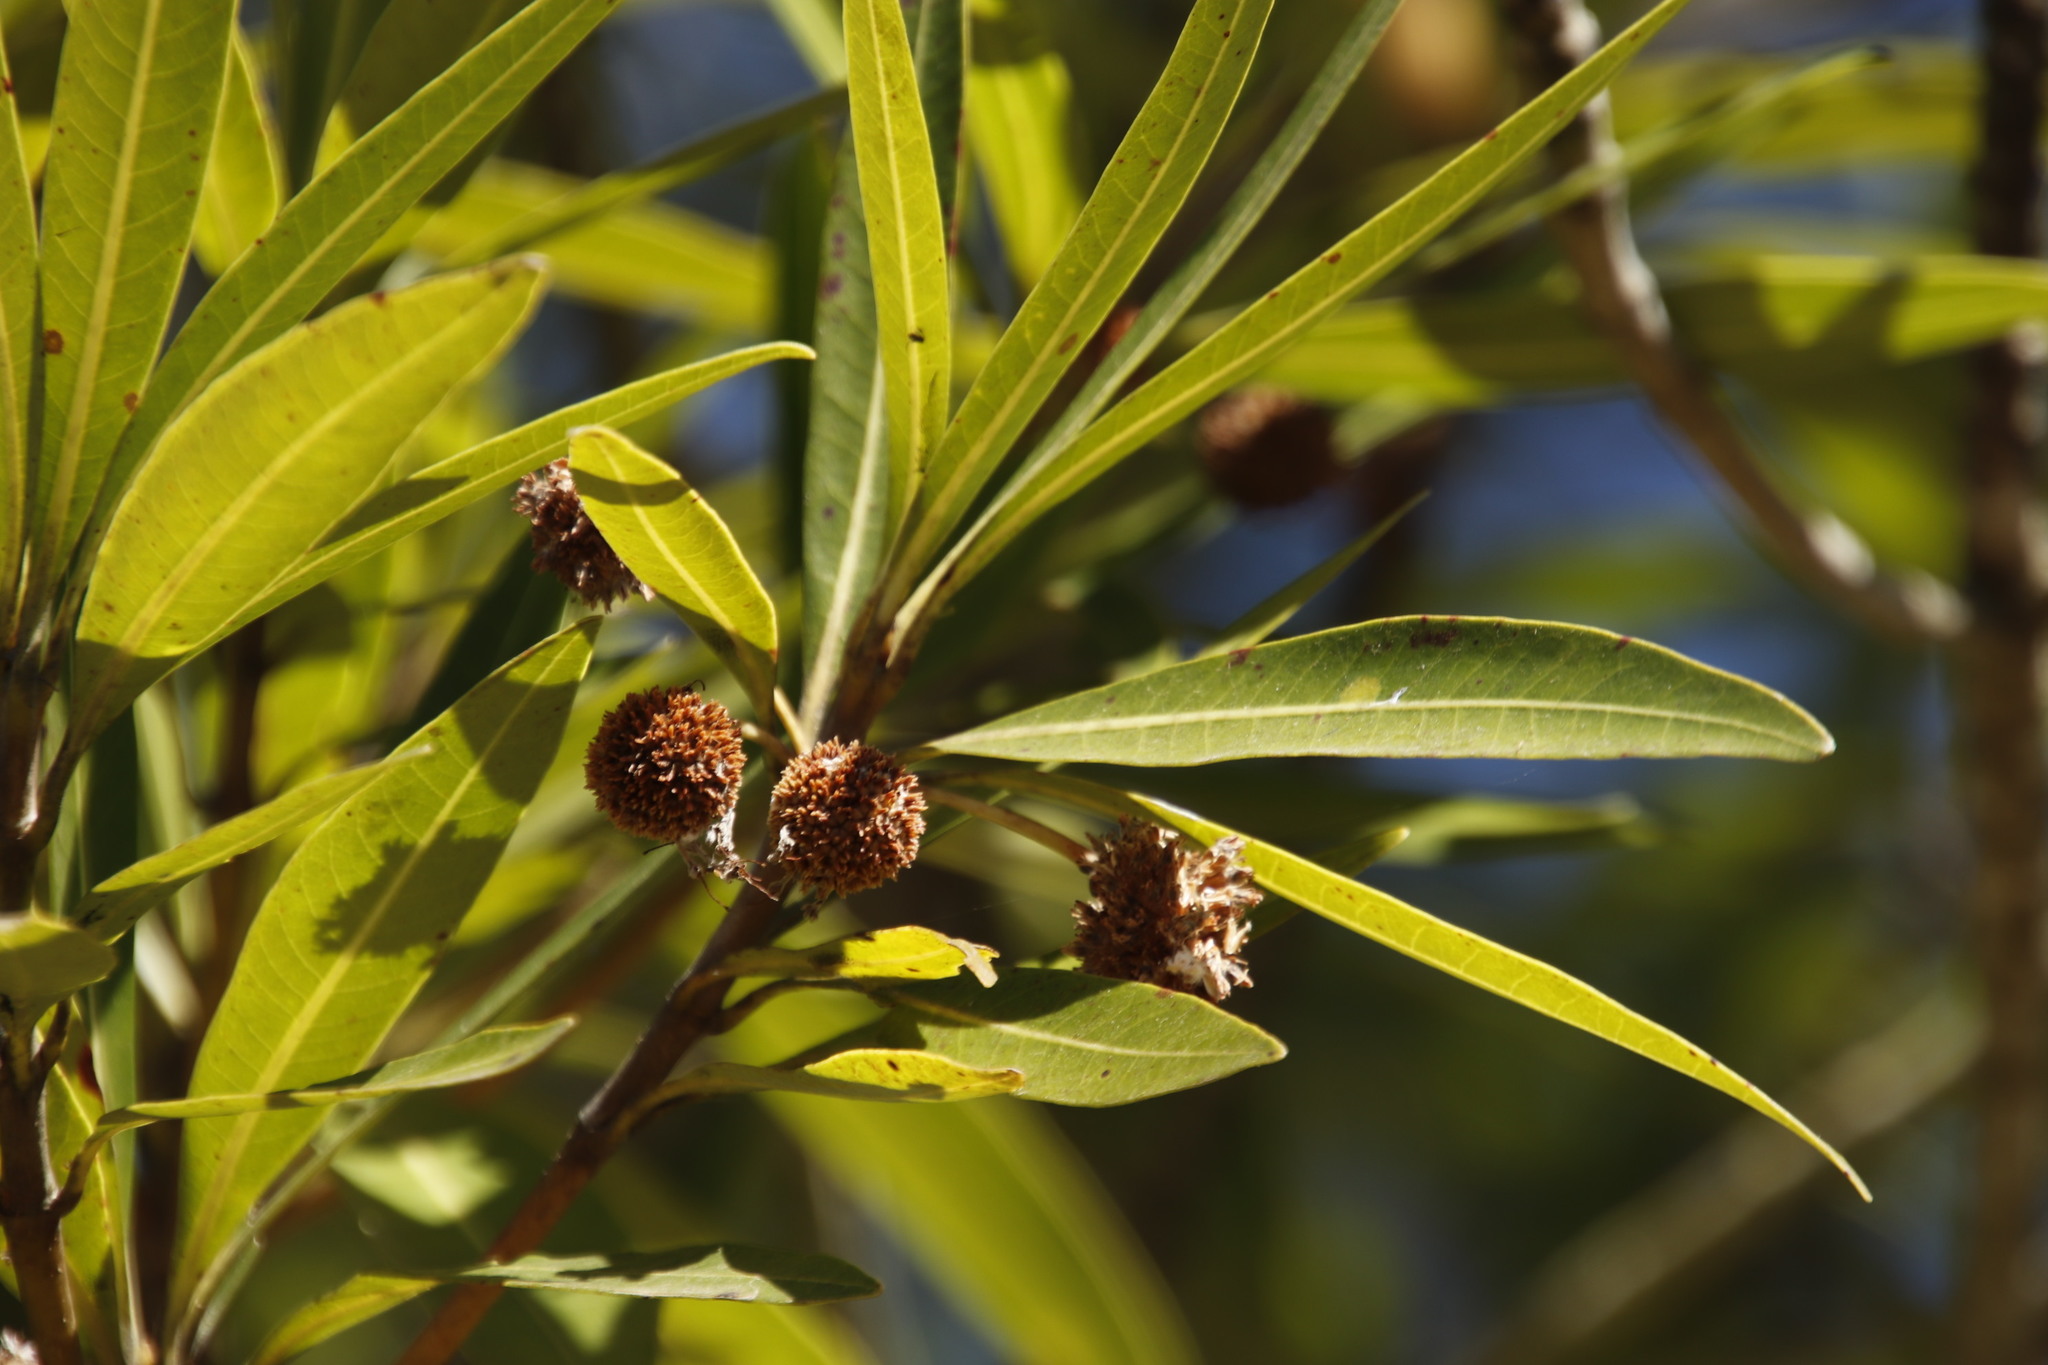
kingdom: Plantae
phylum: Tracheophyta
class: Magnoliopsida
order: Gentianales
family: Rubiaceae
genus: Breonadia
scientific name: Breonadia salicina
